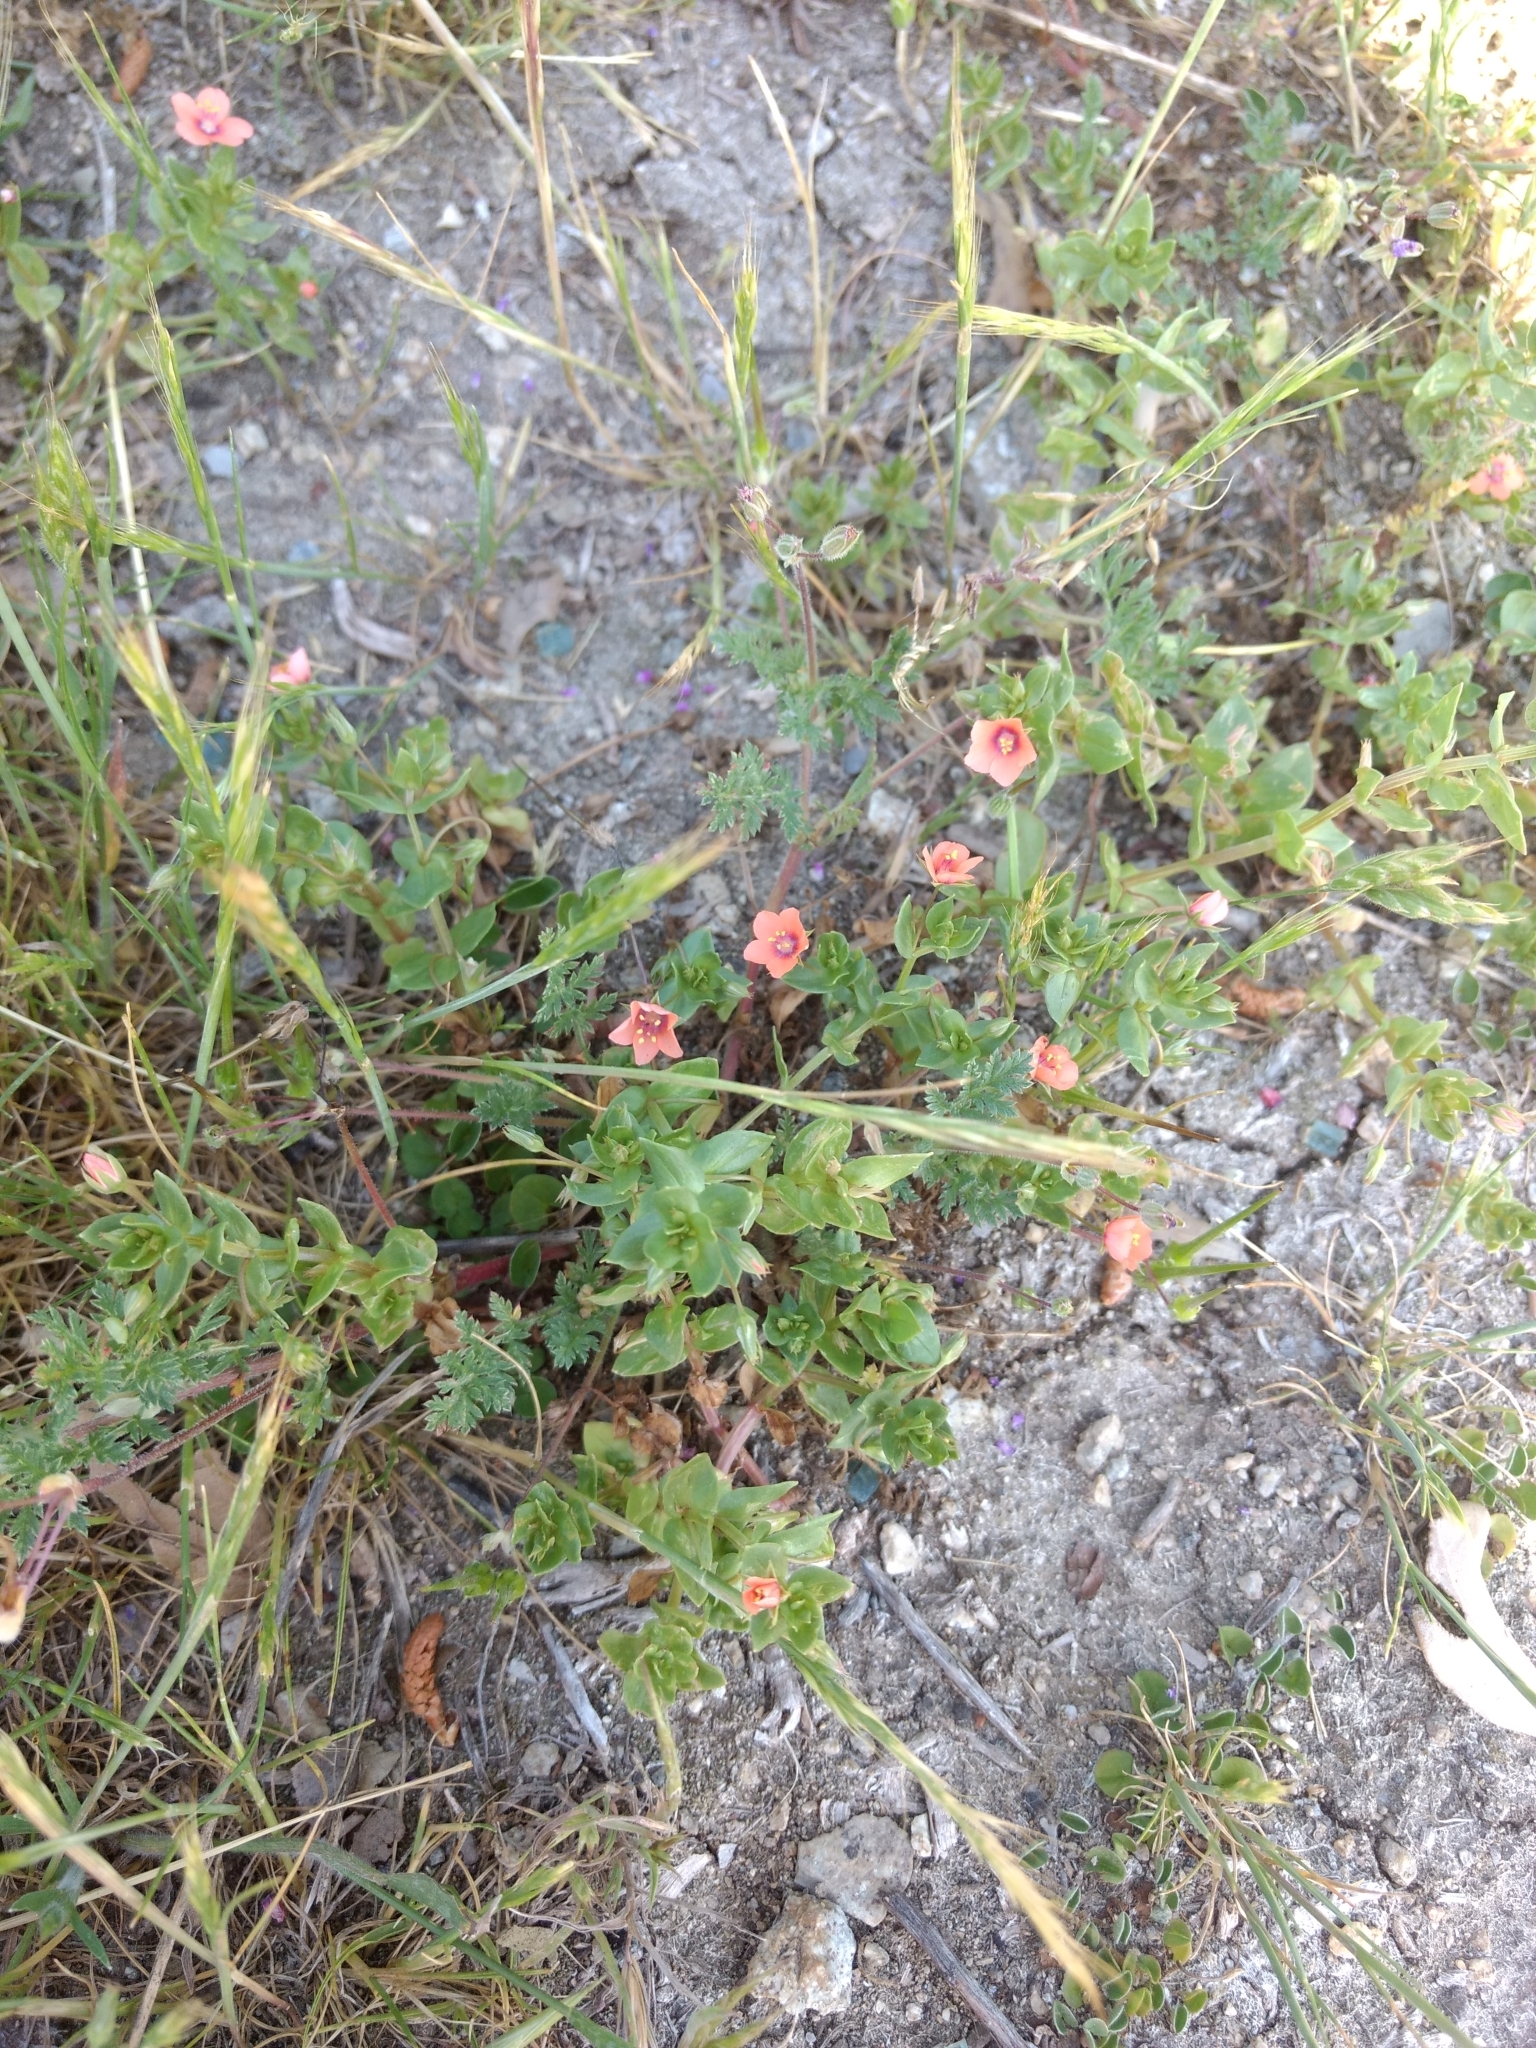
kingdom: Plantae
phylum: Tracheophyta
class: Magnoliopsida
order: Ericales
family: Primulaceae
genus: Lysimachia
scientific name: Lysimachia arvensis
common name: Scarlet pimpernel
